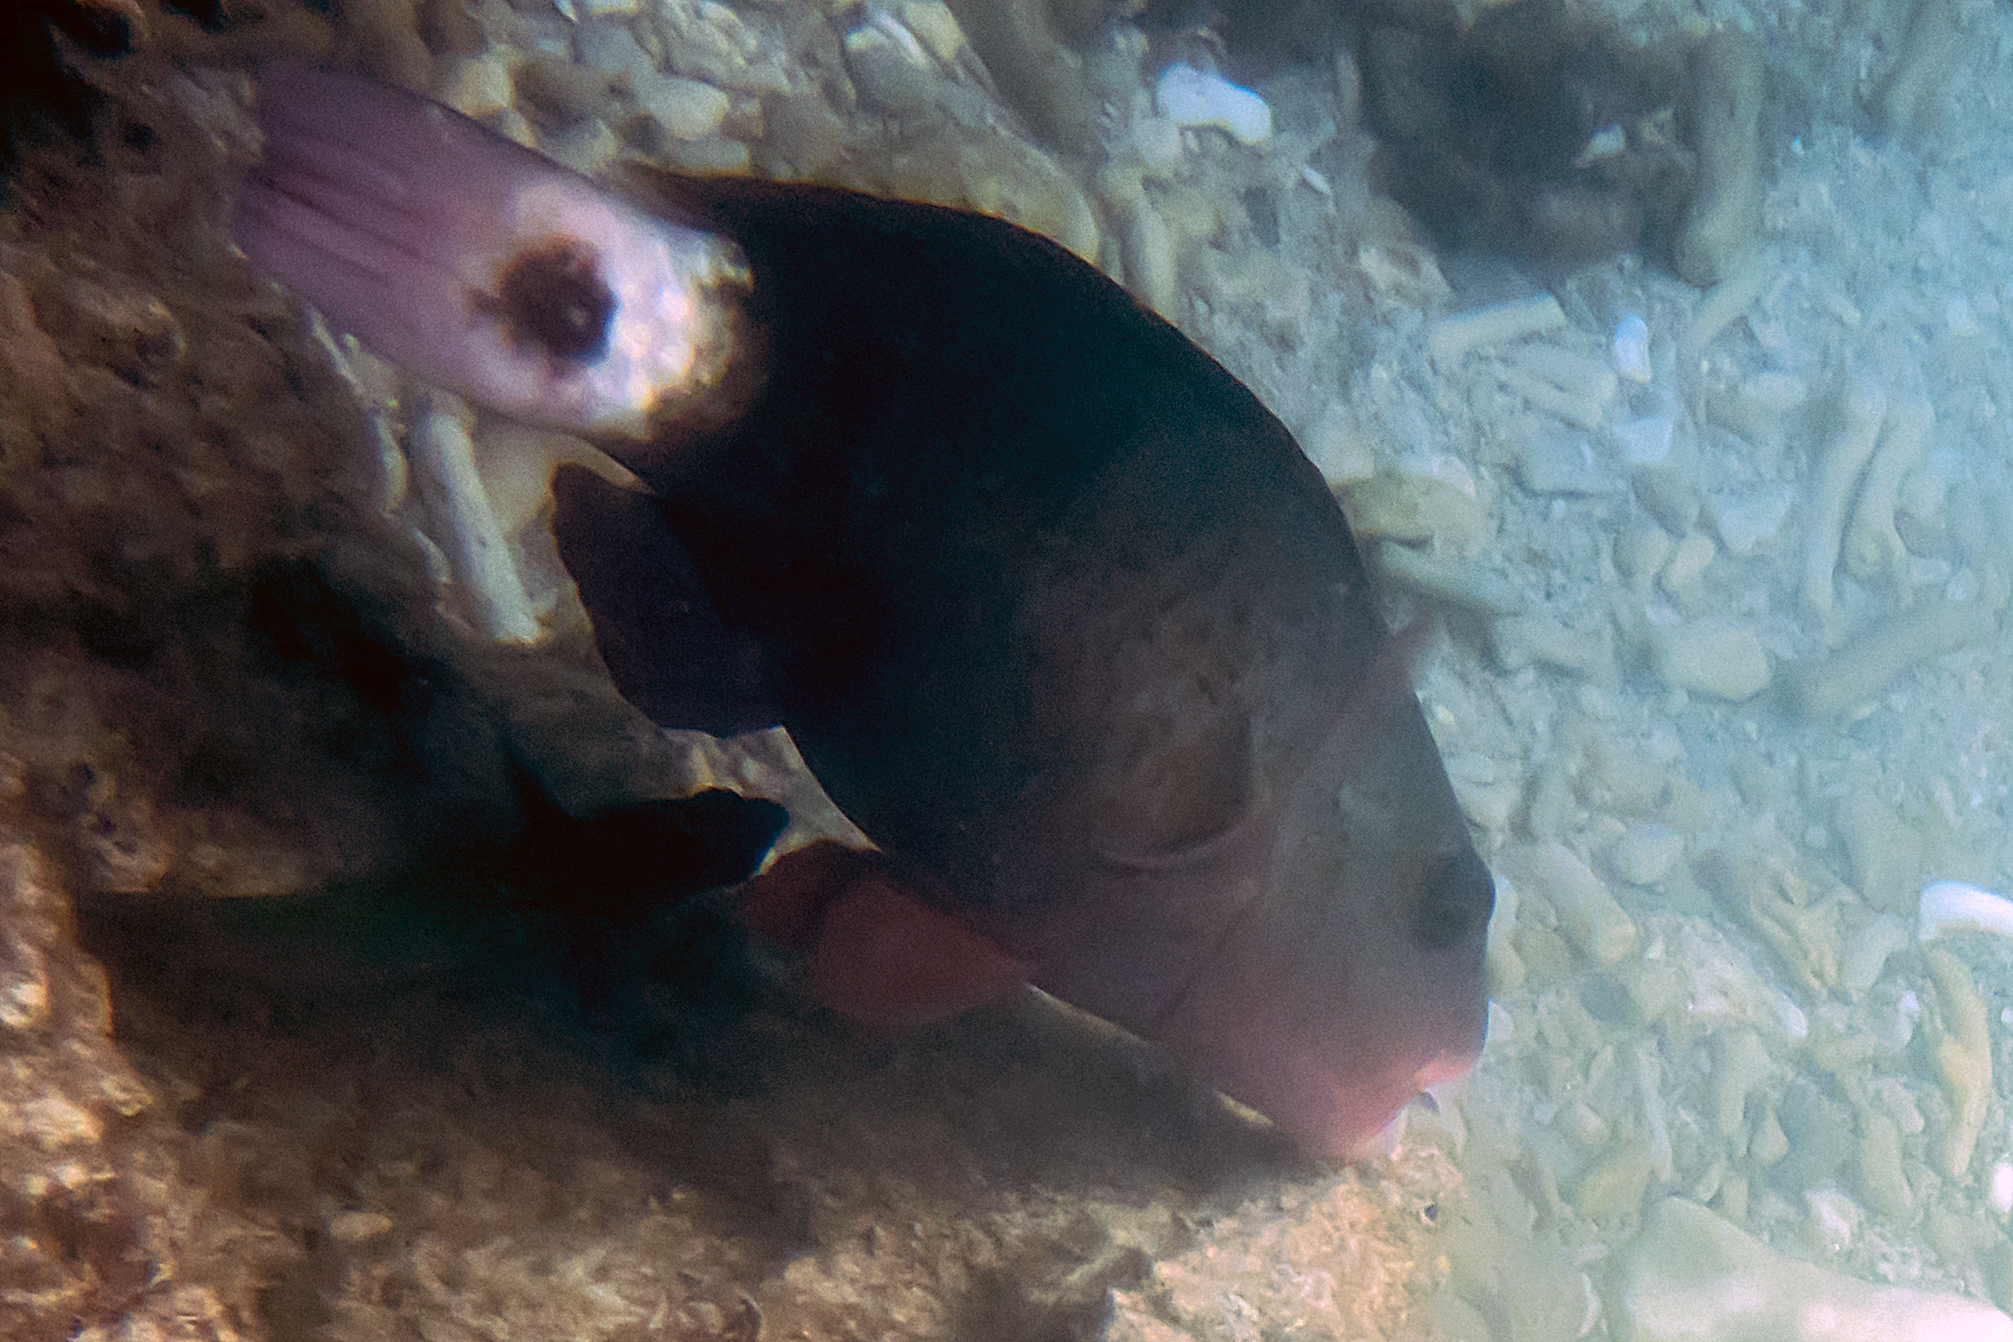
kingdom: Animalia
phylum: Chordata
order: Perciformes
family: Scaridae
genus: Chlorurus
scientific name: Chlorurus spilurus
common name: Bullethead parrotfish
